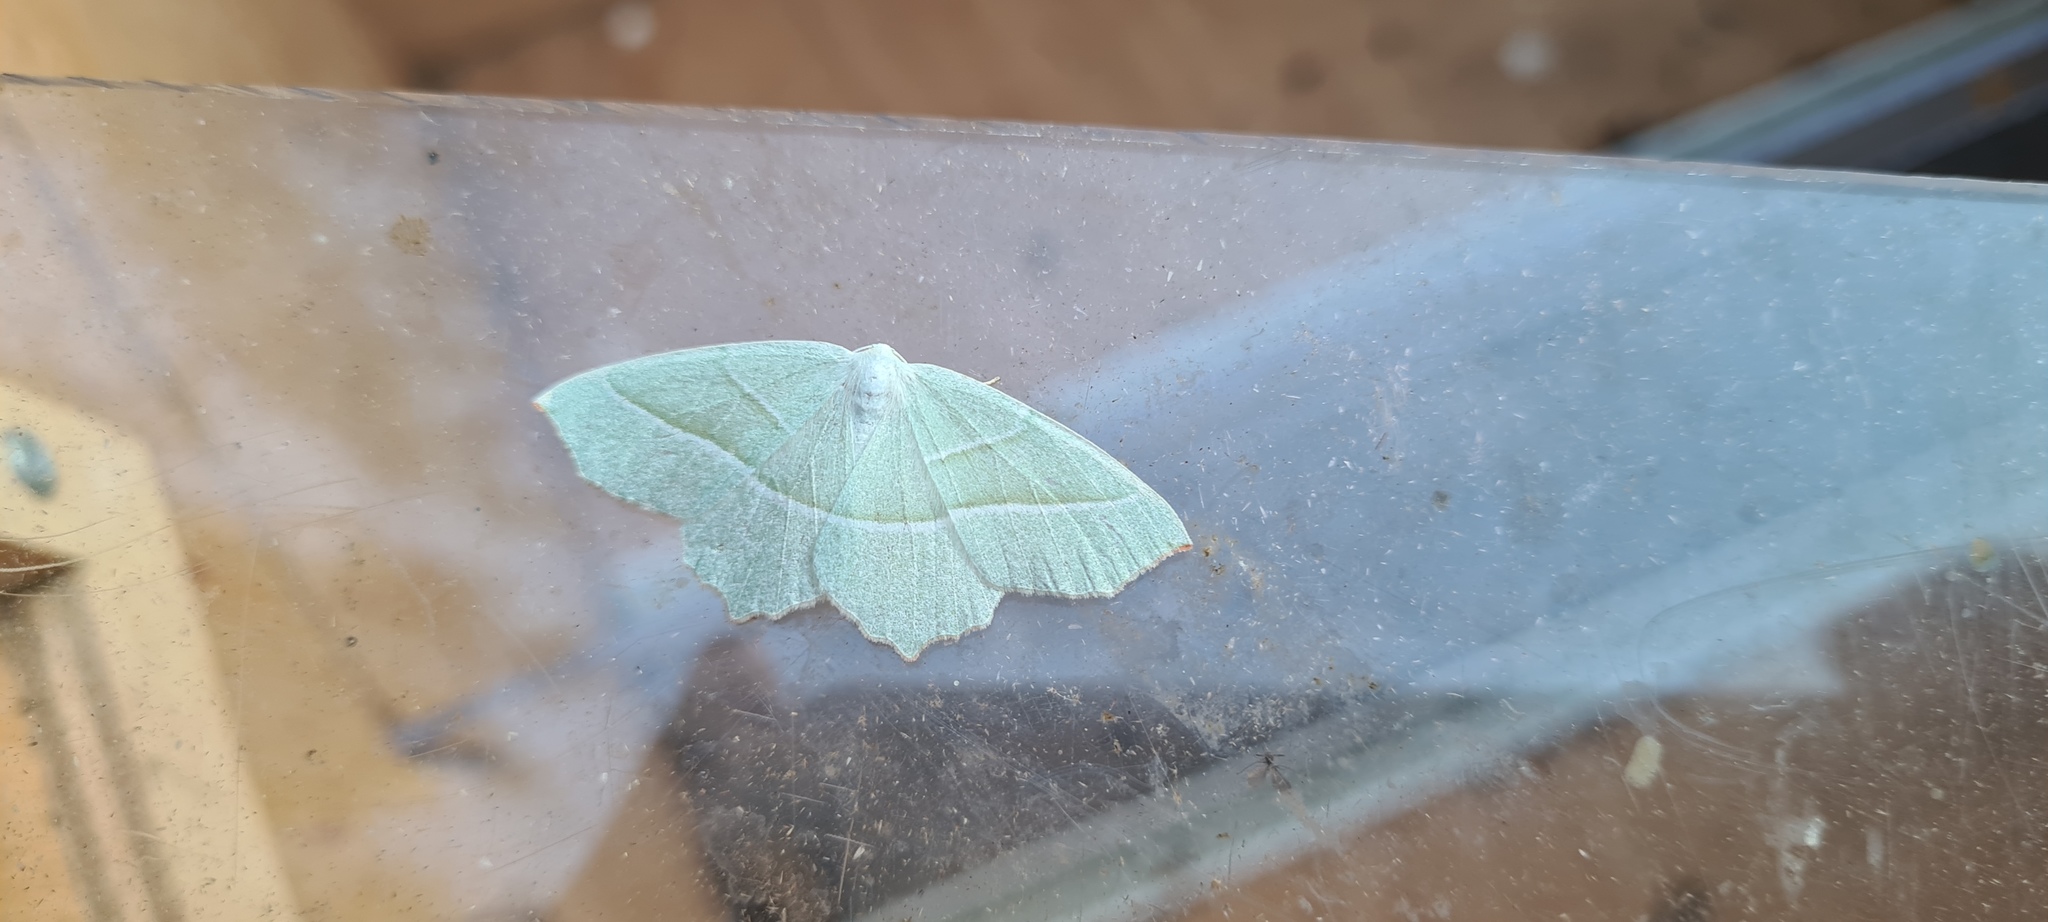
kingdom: Animalia
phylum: Arthropoda
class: Insecta
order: Lepidoptera
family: Geometridae
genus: Campaea
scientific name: Campaea margaritaria
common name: Light emerald
